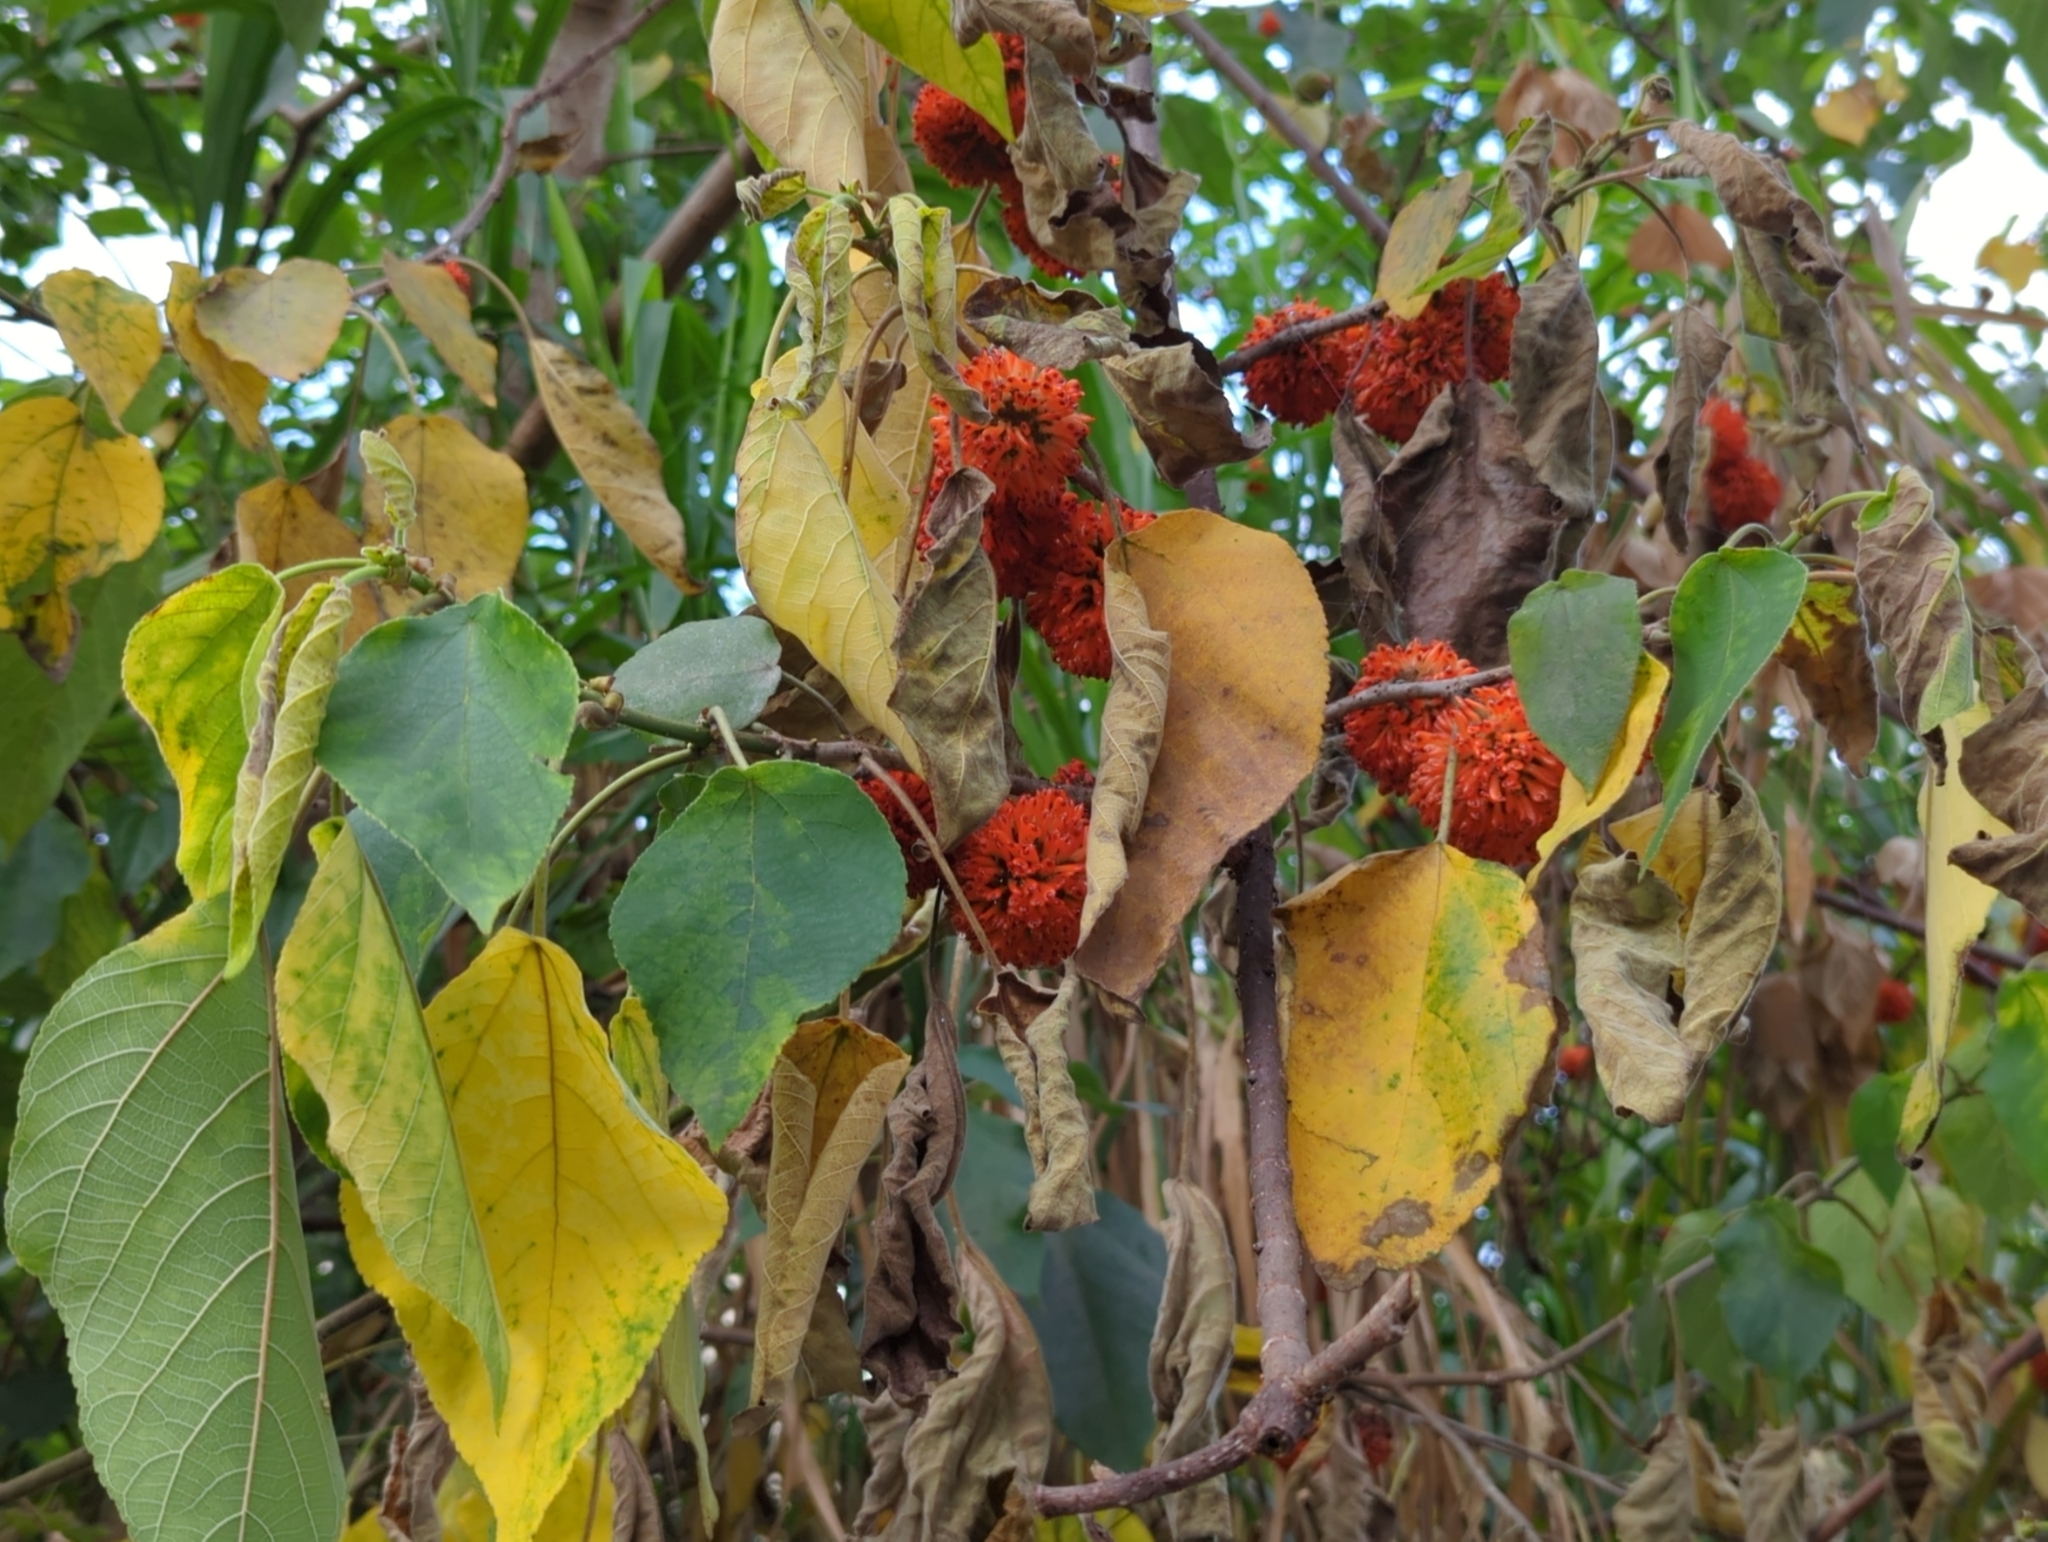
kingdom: Plantae
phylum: Tracheophyta
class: Magnoliopsida
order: Rosales
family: Moraceae
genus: Broussonetia
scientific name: Broussonetia papyrifera
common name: Paper mulberry
